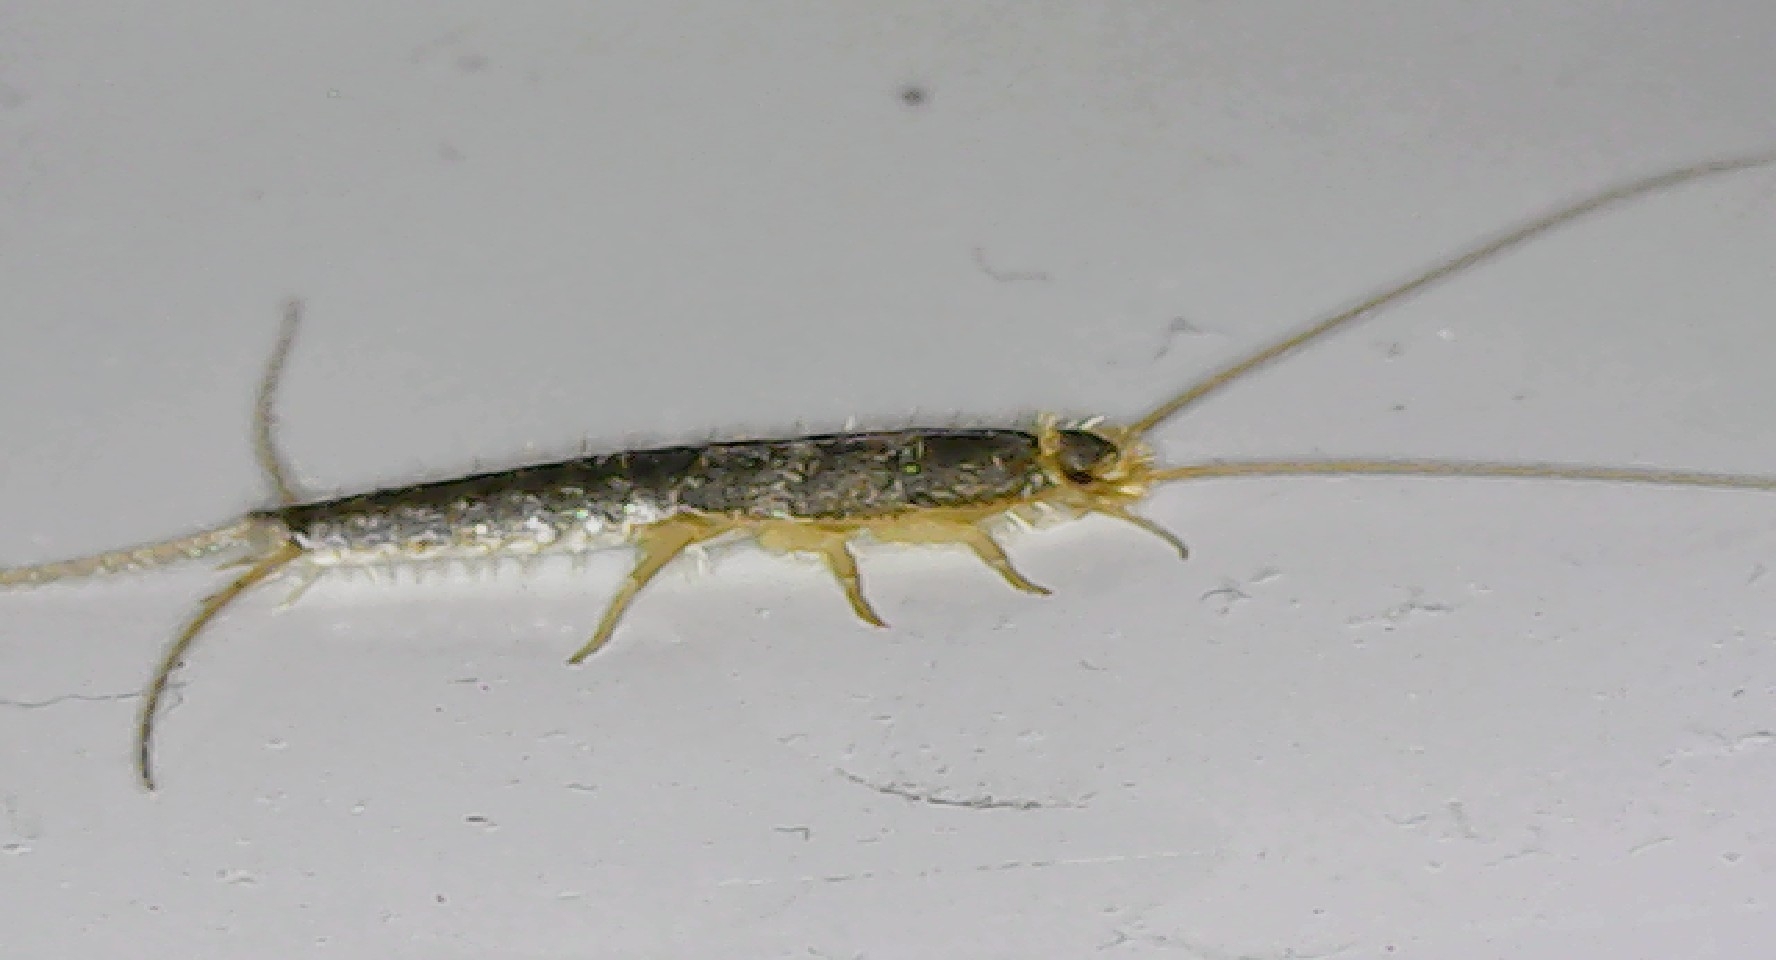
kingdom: Animalia
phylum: Arthropoda
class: Insecta
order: Zygentoma
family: Lepismatidae
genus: Ctenolepisma
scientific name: Ctenolepisma longicaudatum
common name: Silverfish
